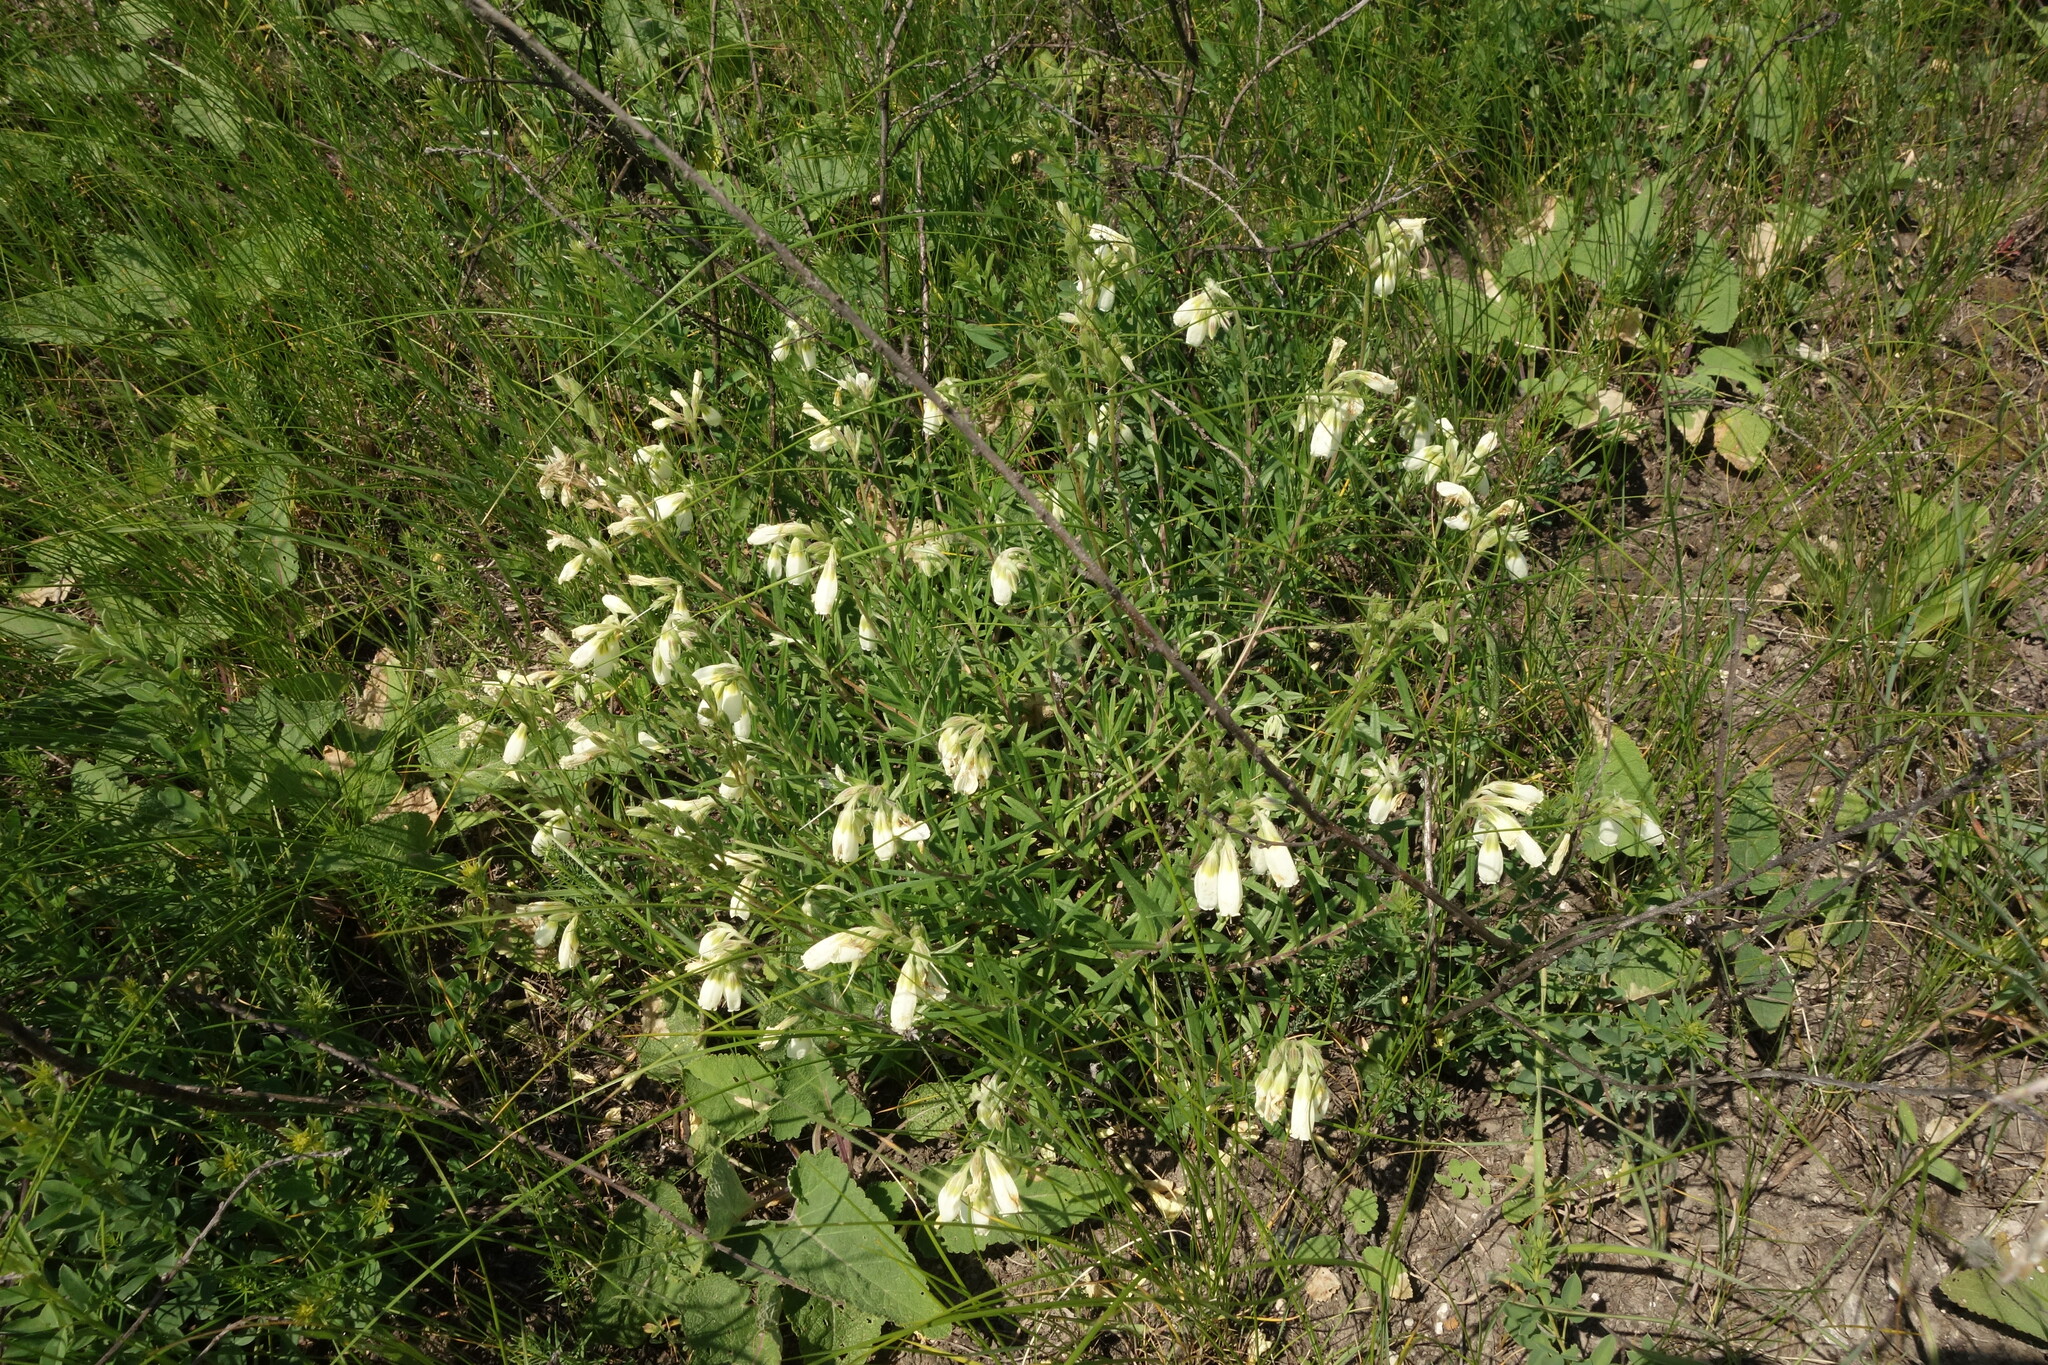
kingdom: Plantae
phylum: Tracheophyta
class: Magnoliopsida
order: Boraginales
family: Boraginaceae
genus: Onosma
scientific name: Onosma simplicissima
